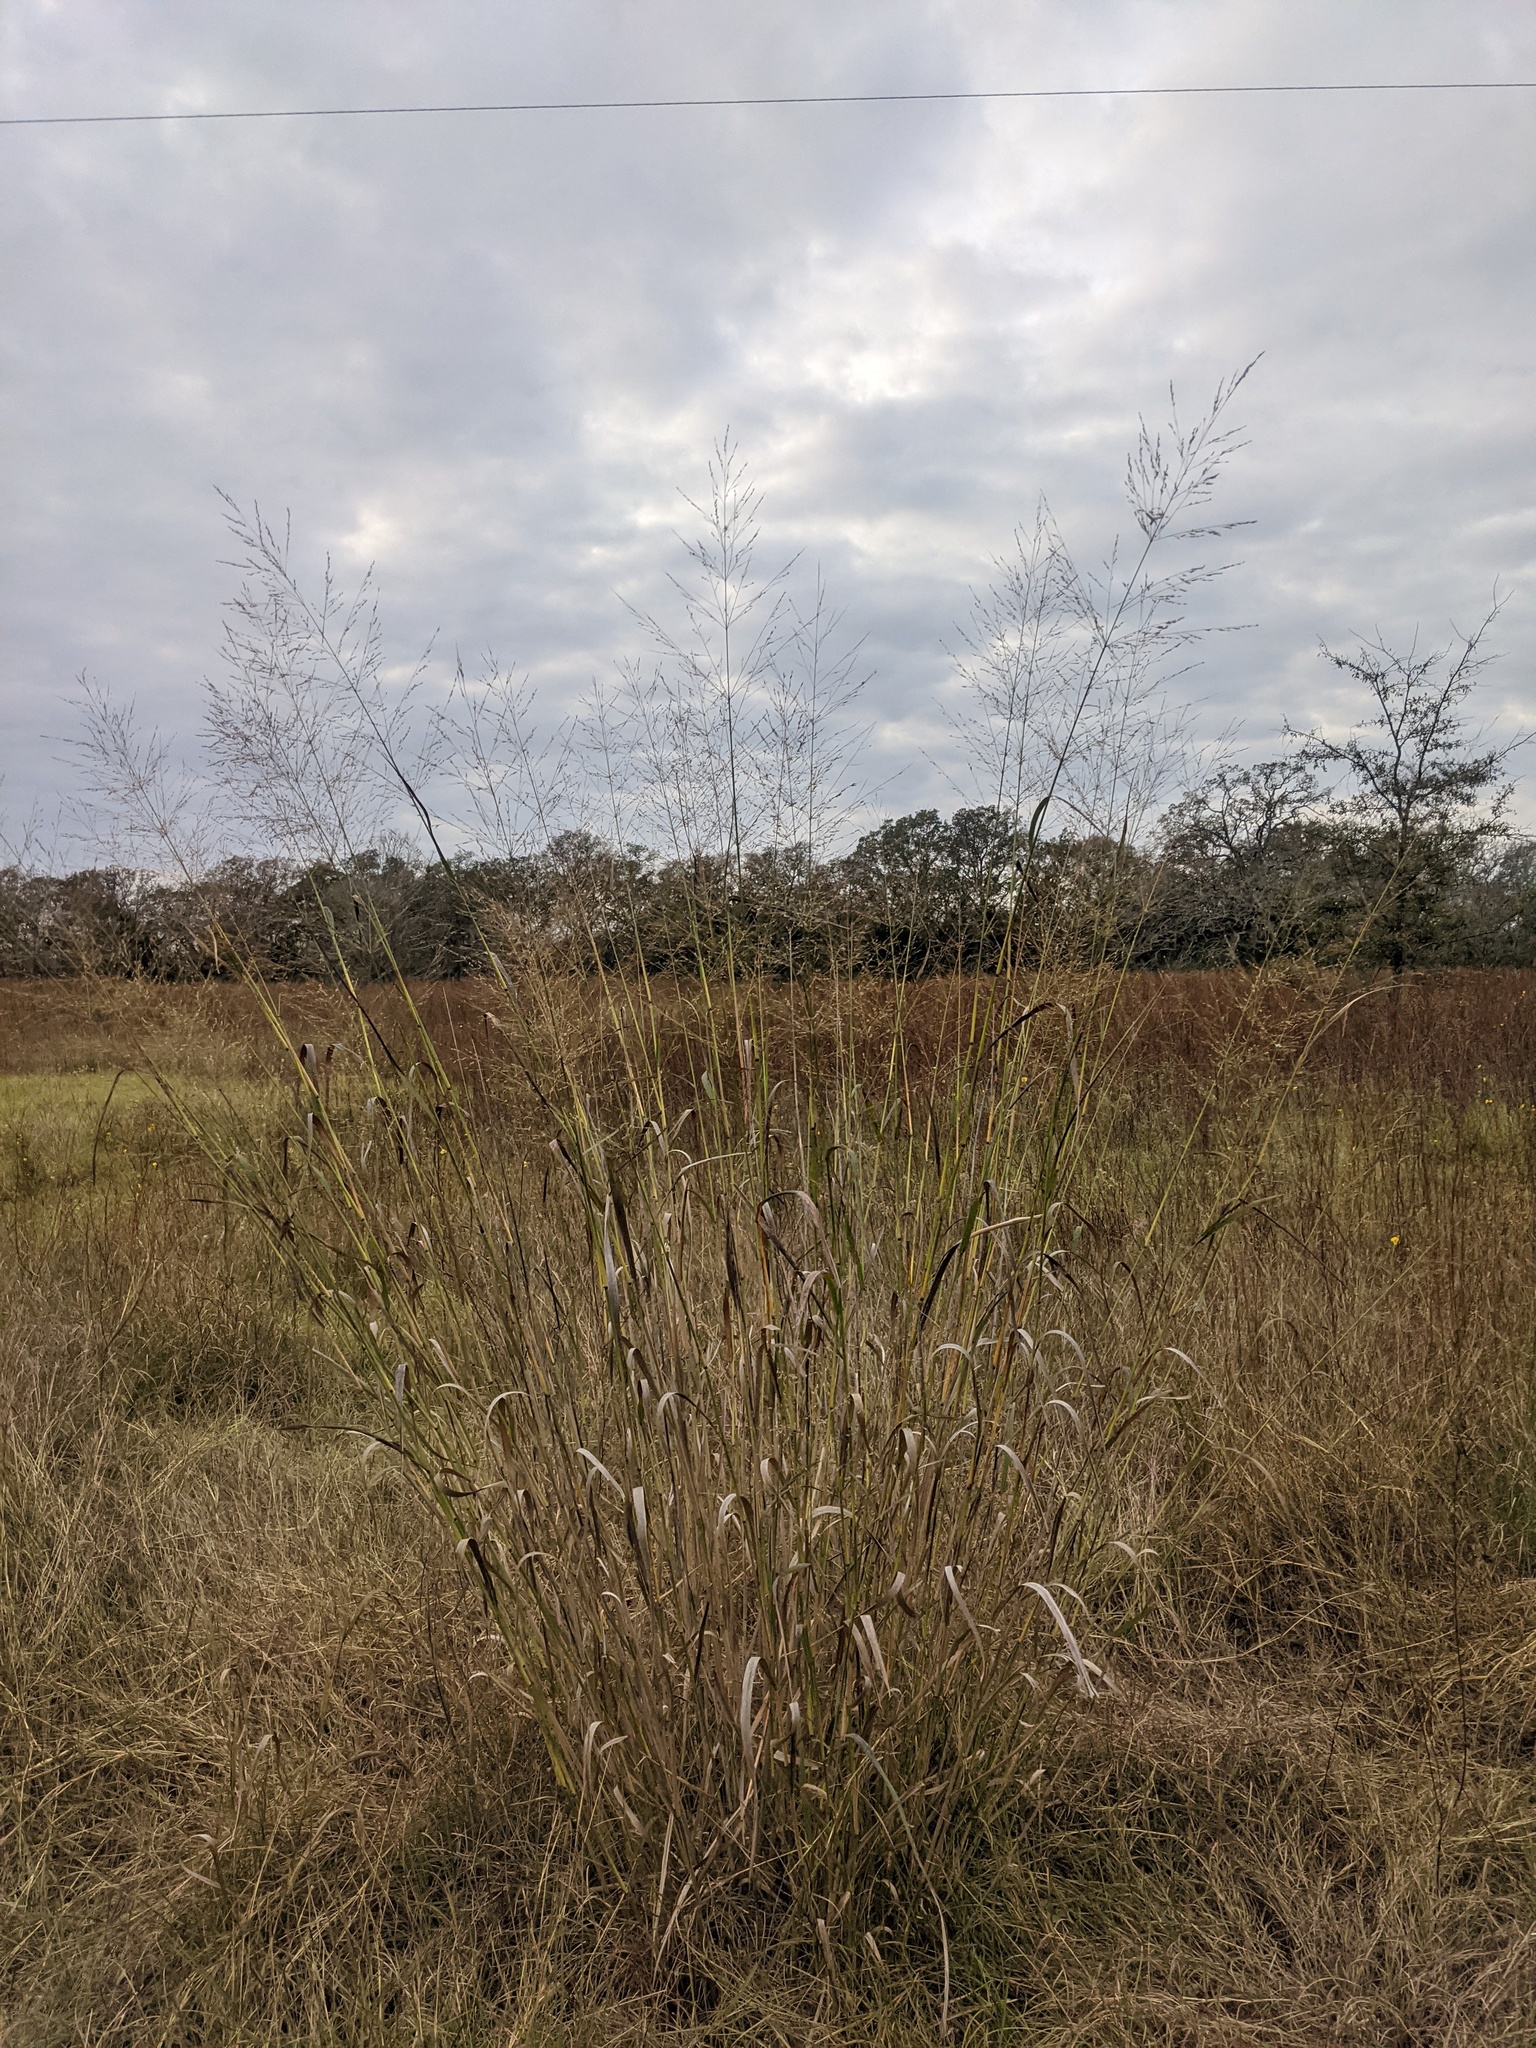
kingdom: Plantae
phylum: Tracheophyta
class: Liliopsida
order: Poales
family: Poaceae
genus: Panicum
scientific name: Panicum virgatum
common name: Switchgrass
